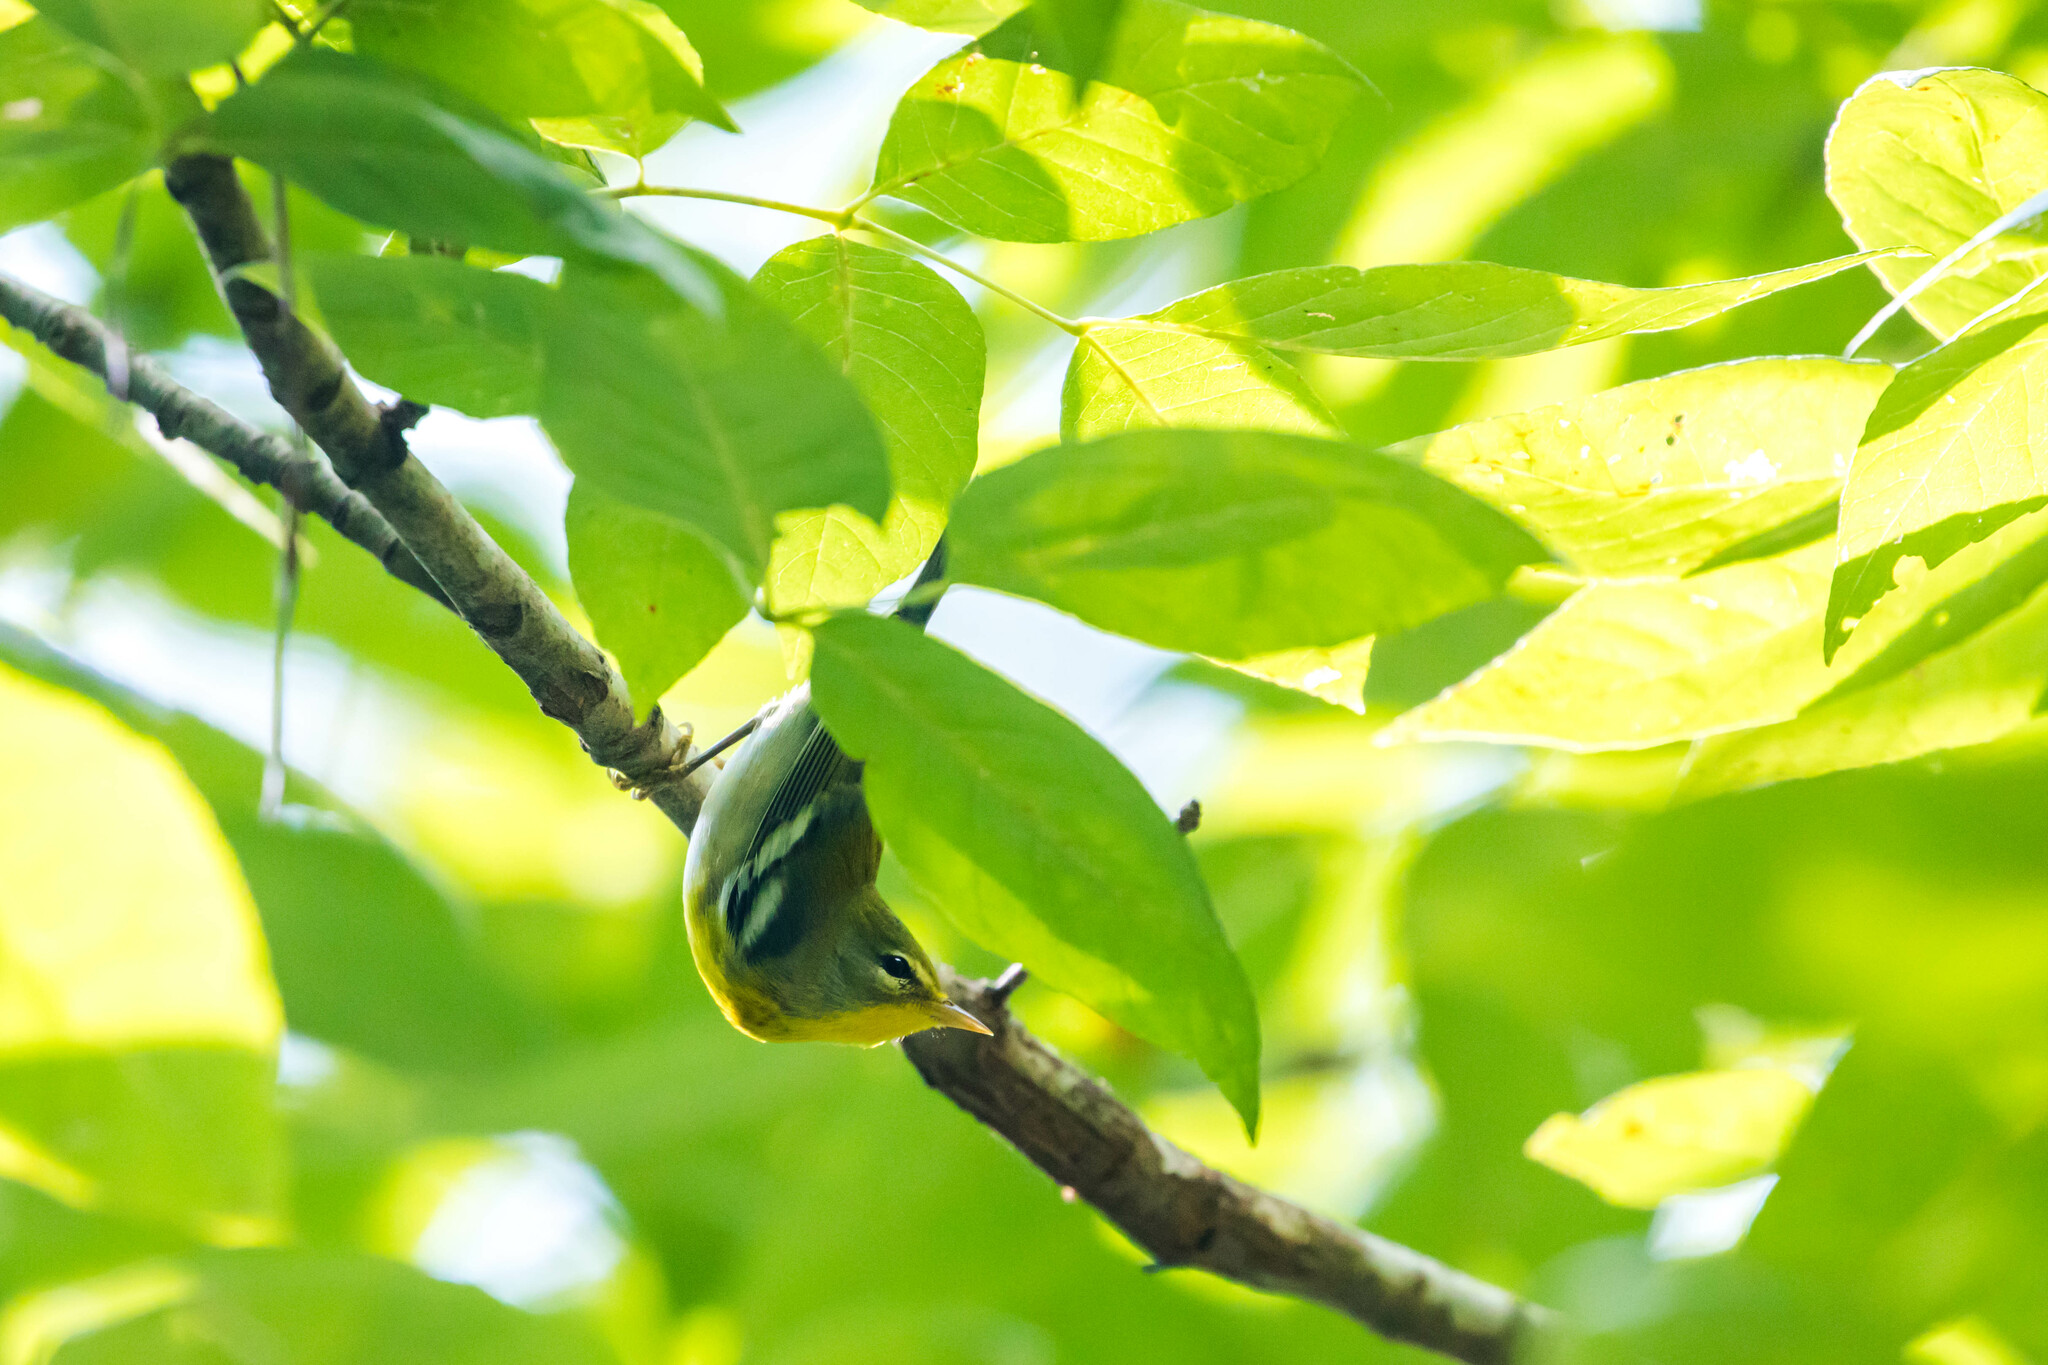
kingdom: Animalia
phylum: Chordata
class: Aves
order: Passeriformes
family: Parulidae
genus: Setophaga
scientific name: Setophaga americana
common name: Northern parula
